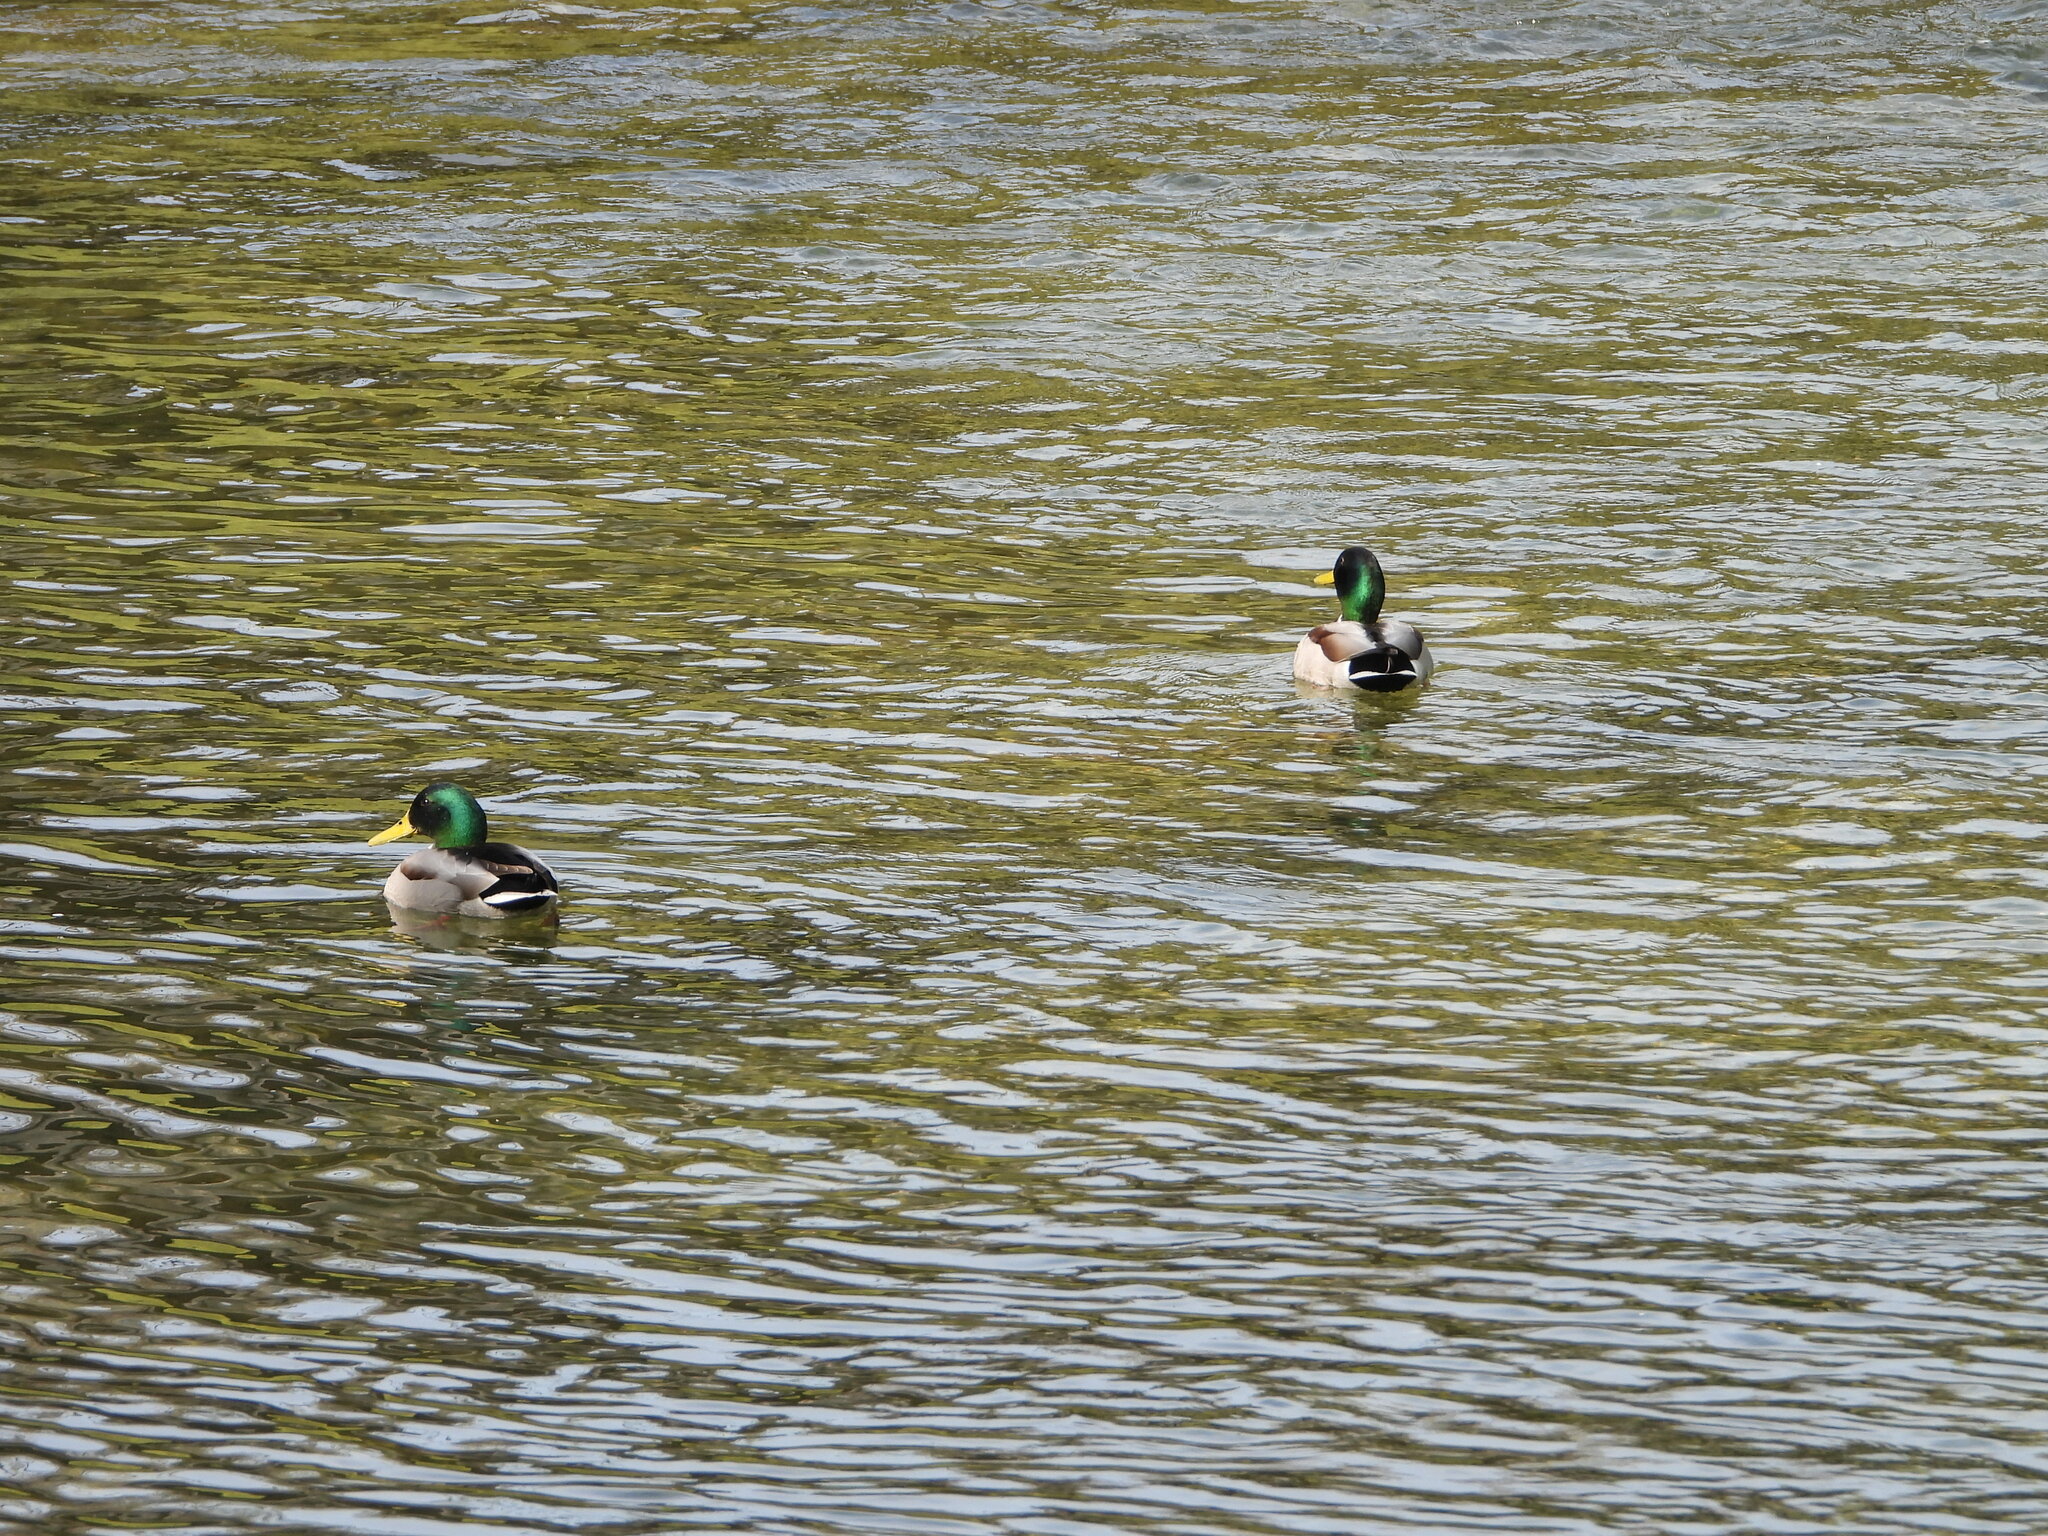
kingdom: Animalia
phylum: Chordata
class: Aves
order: Anseriformes
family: Anatidae
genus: Anas
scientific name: Anas platyrhynchos
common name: Mallard
